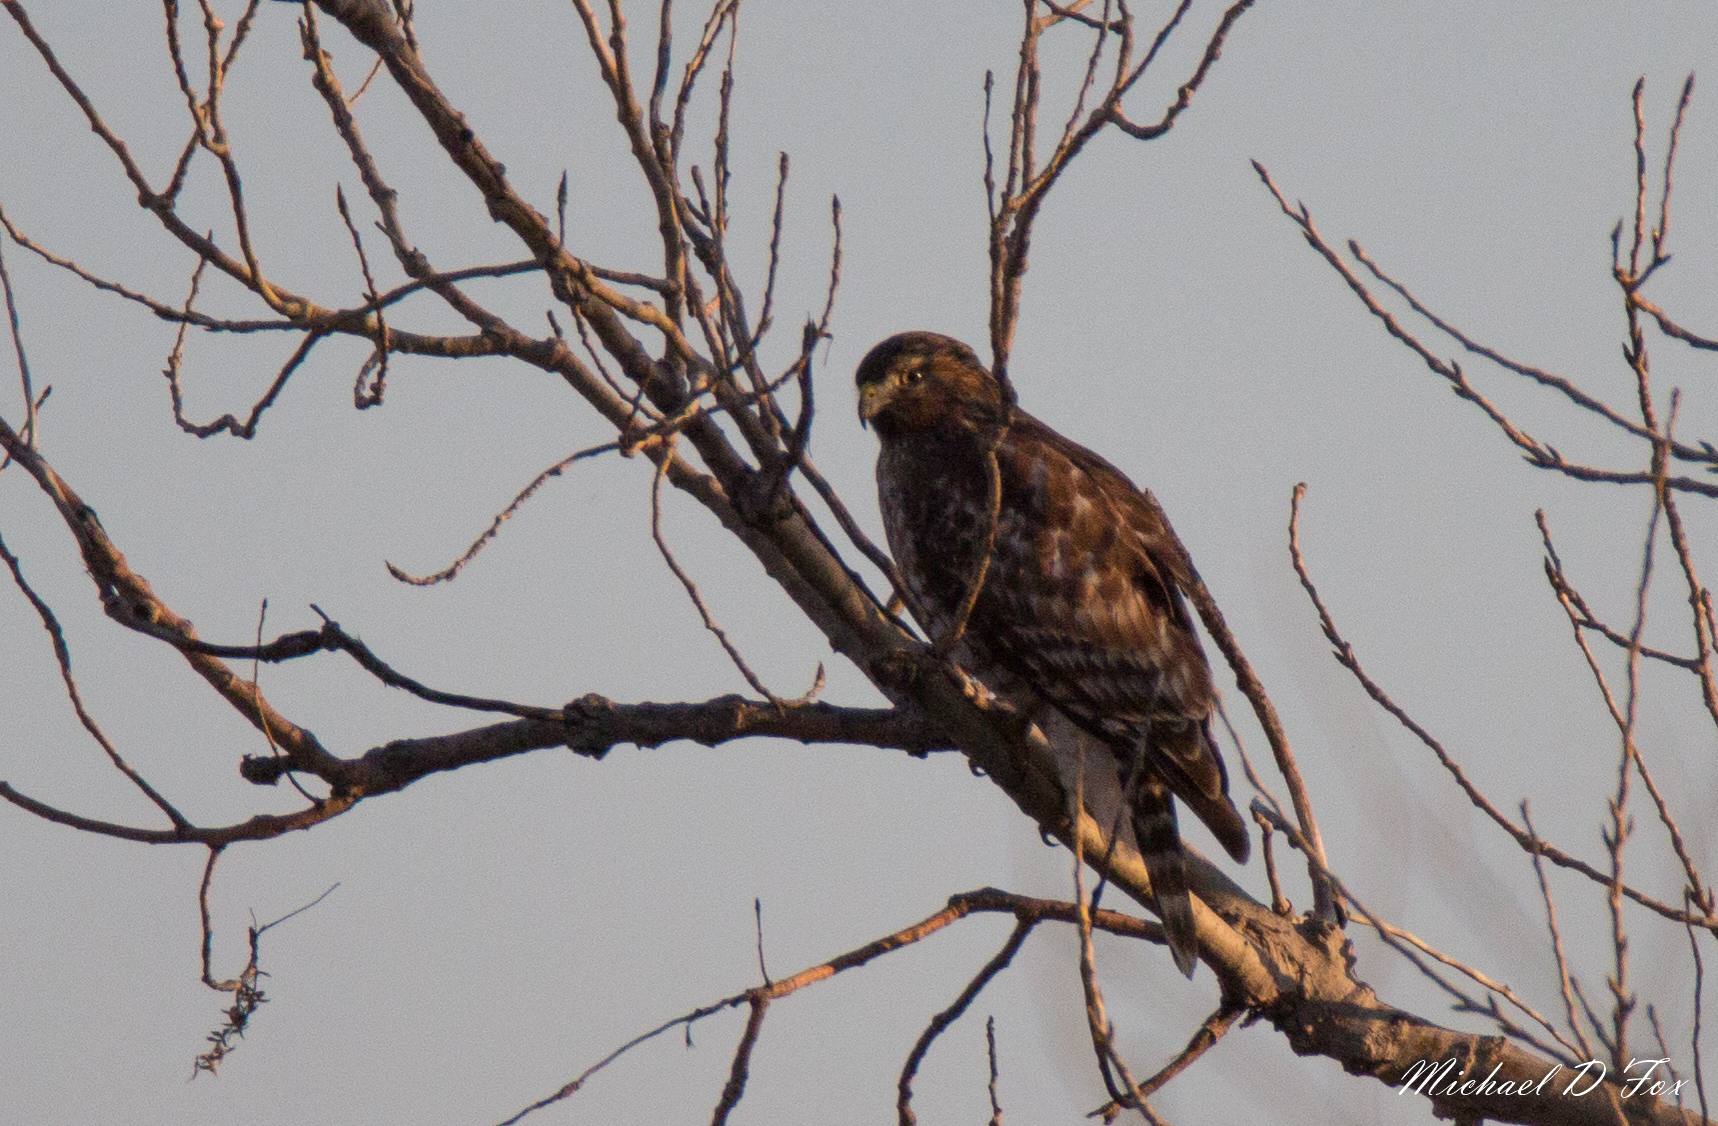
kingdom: Animalia
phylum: Chordata
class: Aves
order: Accipitriformes
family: Accipitridae
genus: Buteo
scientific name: Buteo lineatus
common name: Red-shouldered hawk
